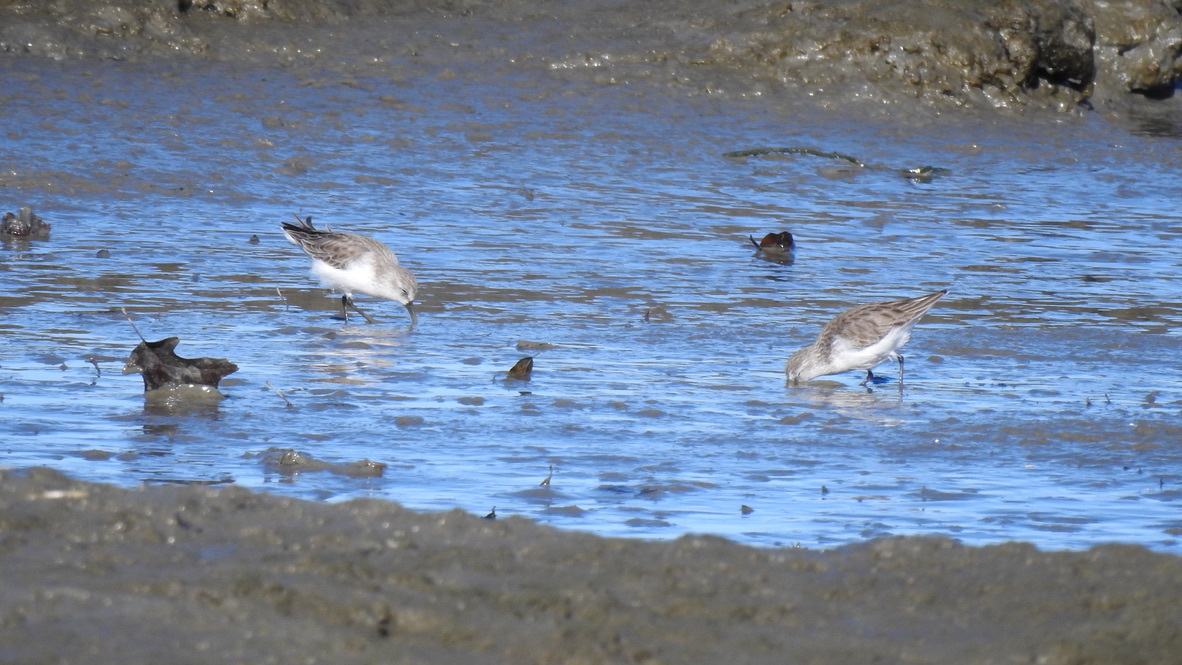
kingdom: Animalia
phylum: Chordata
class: Aves
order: Charadriiformes
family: Scolopacidae
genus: Calidris
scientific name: Calidris mauri
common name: Western sandpiper
